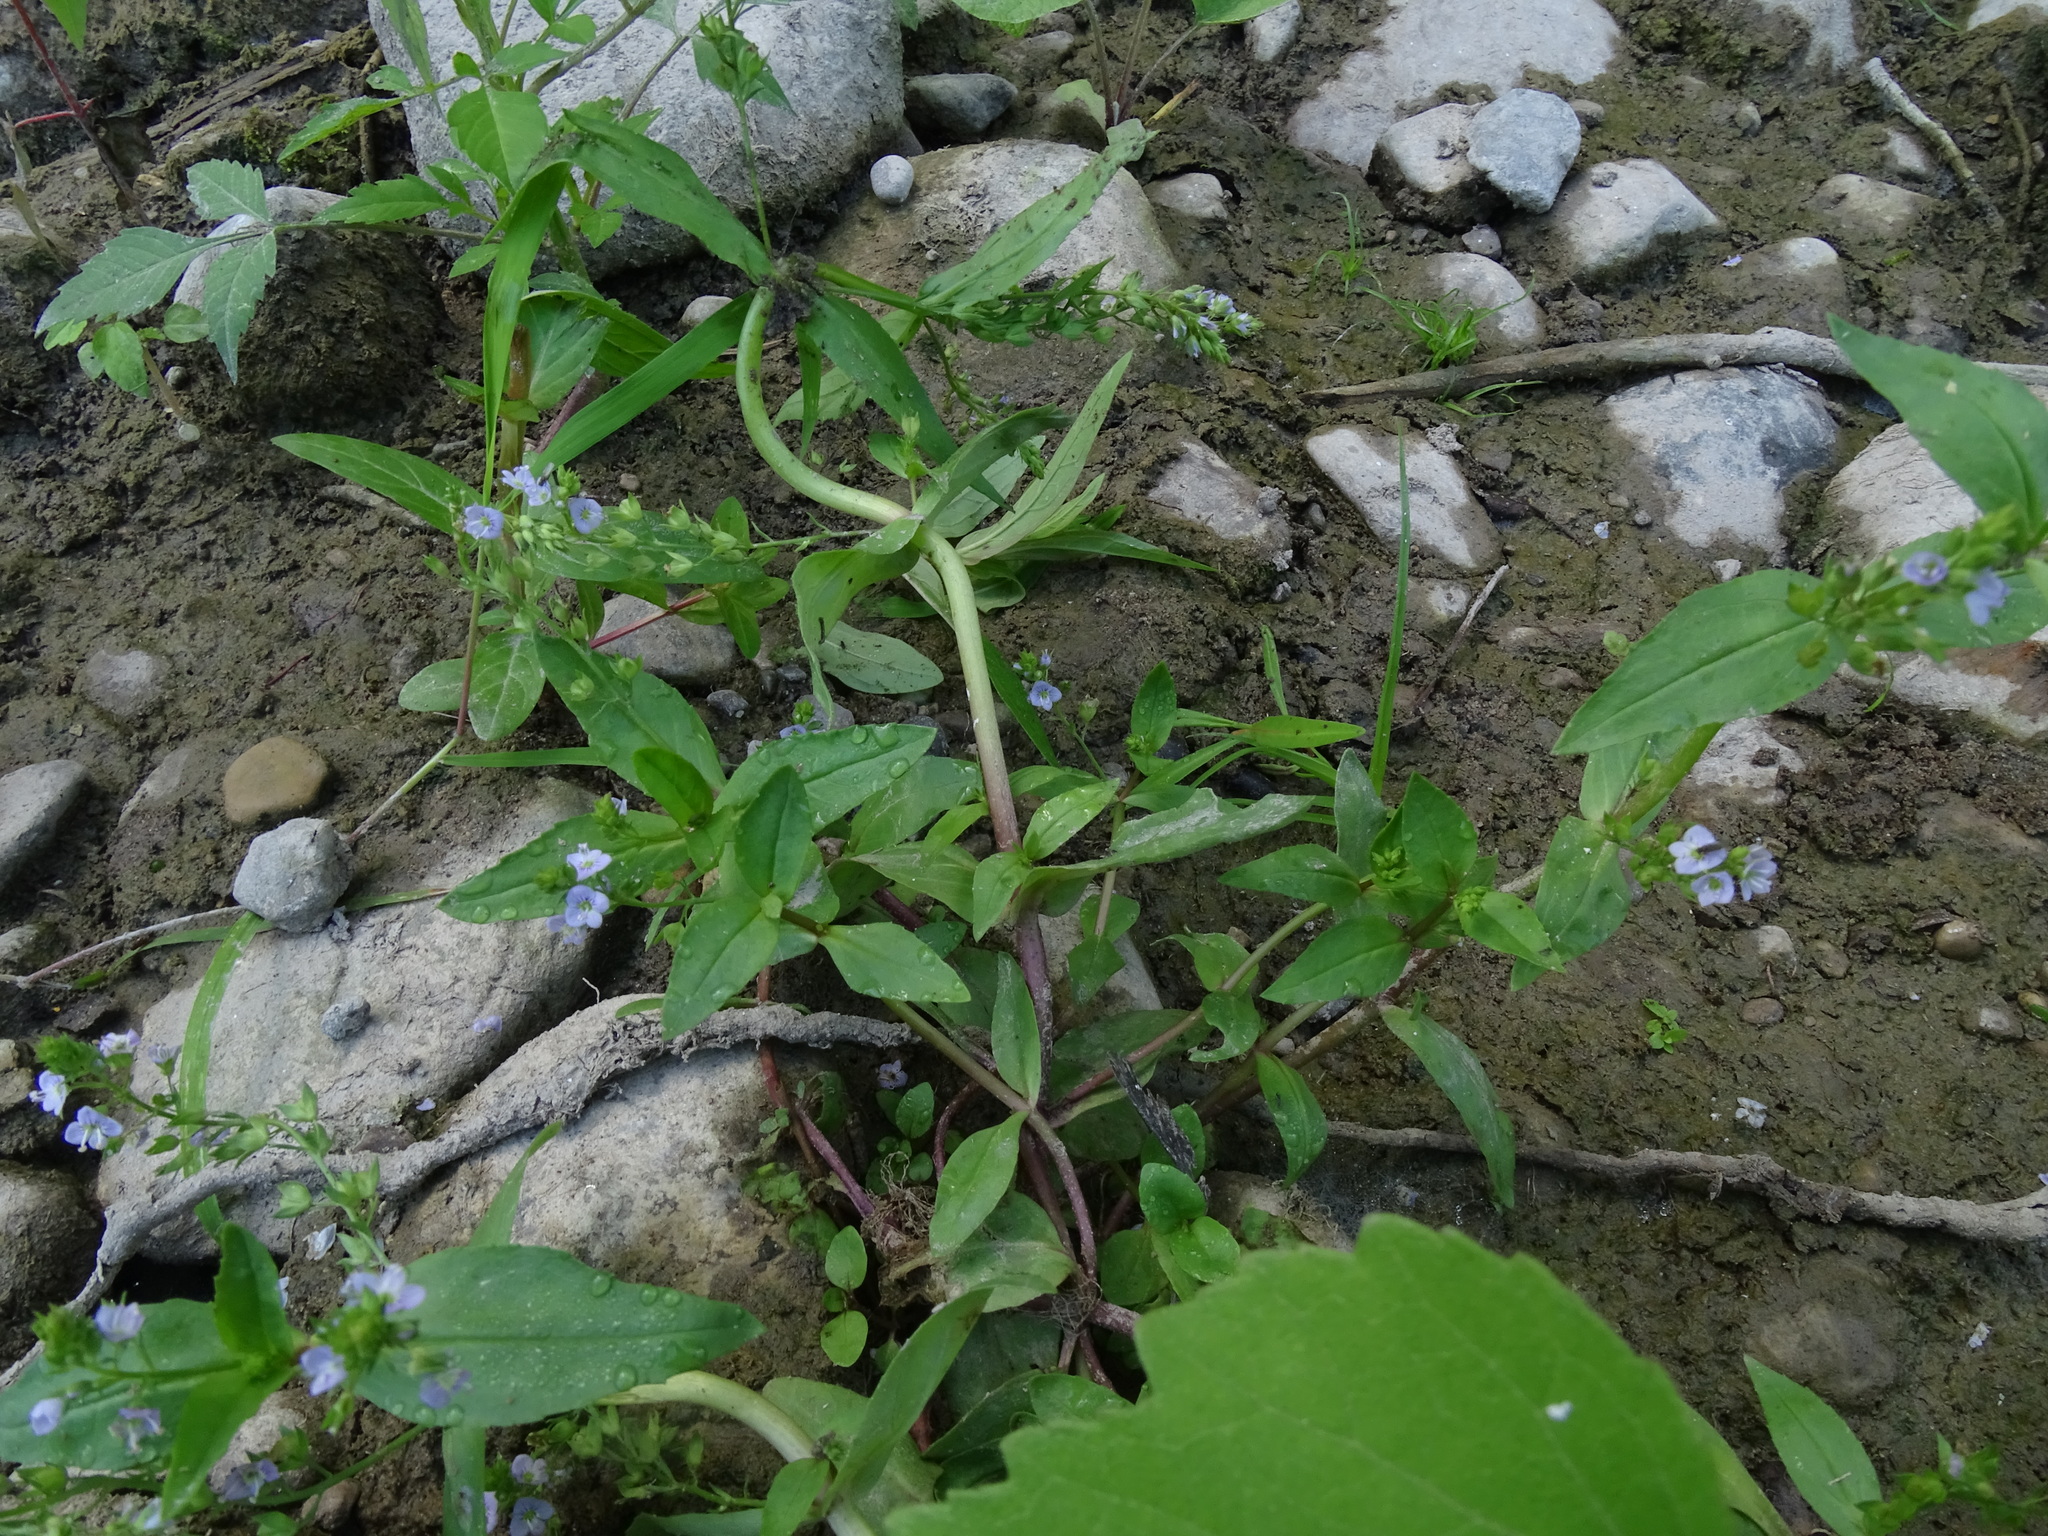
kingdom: Plantae
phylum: Tracheophyta
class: Magnoliopsida
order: Lamiales
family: Plantaginaceae
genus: Veronica
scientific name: Veronica anagallis-aquatica
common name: Water speedwell
